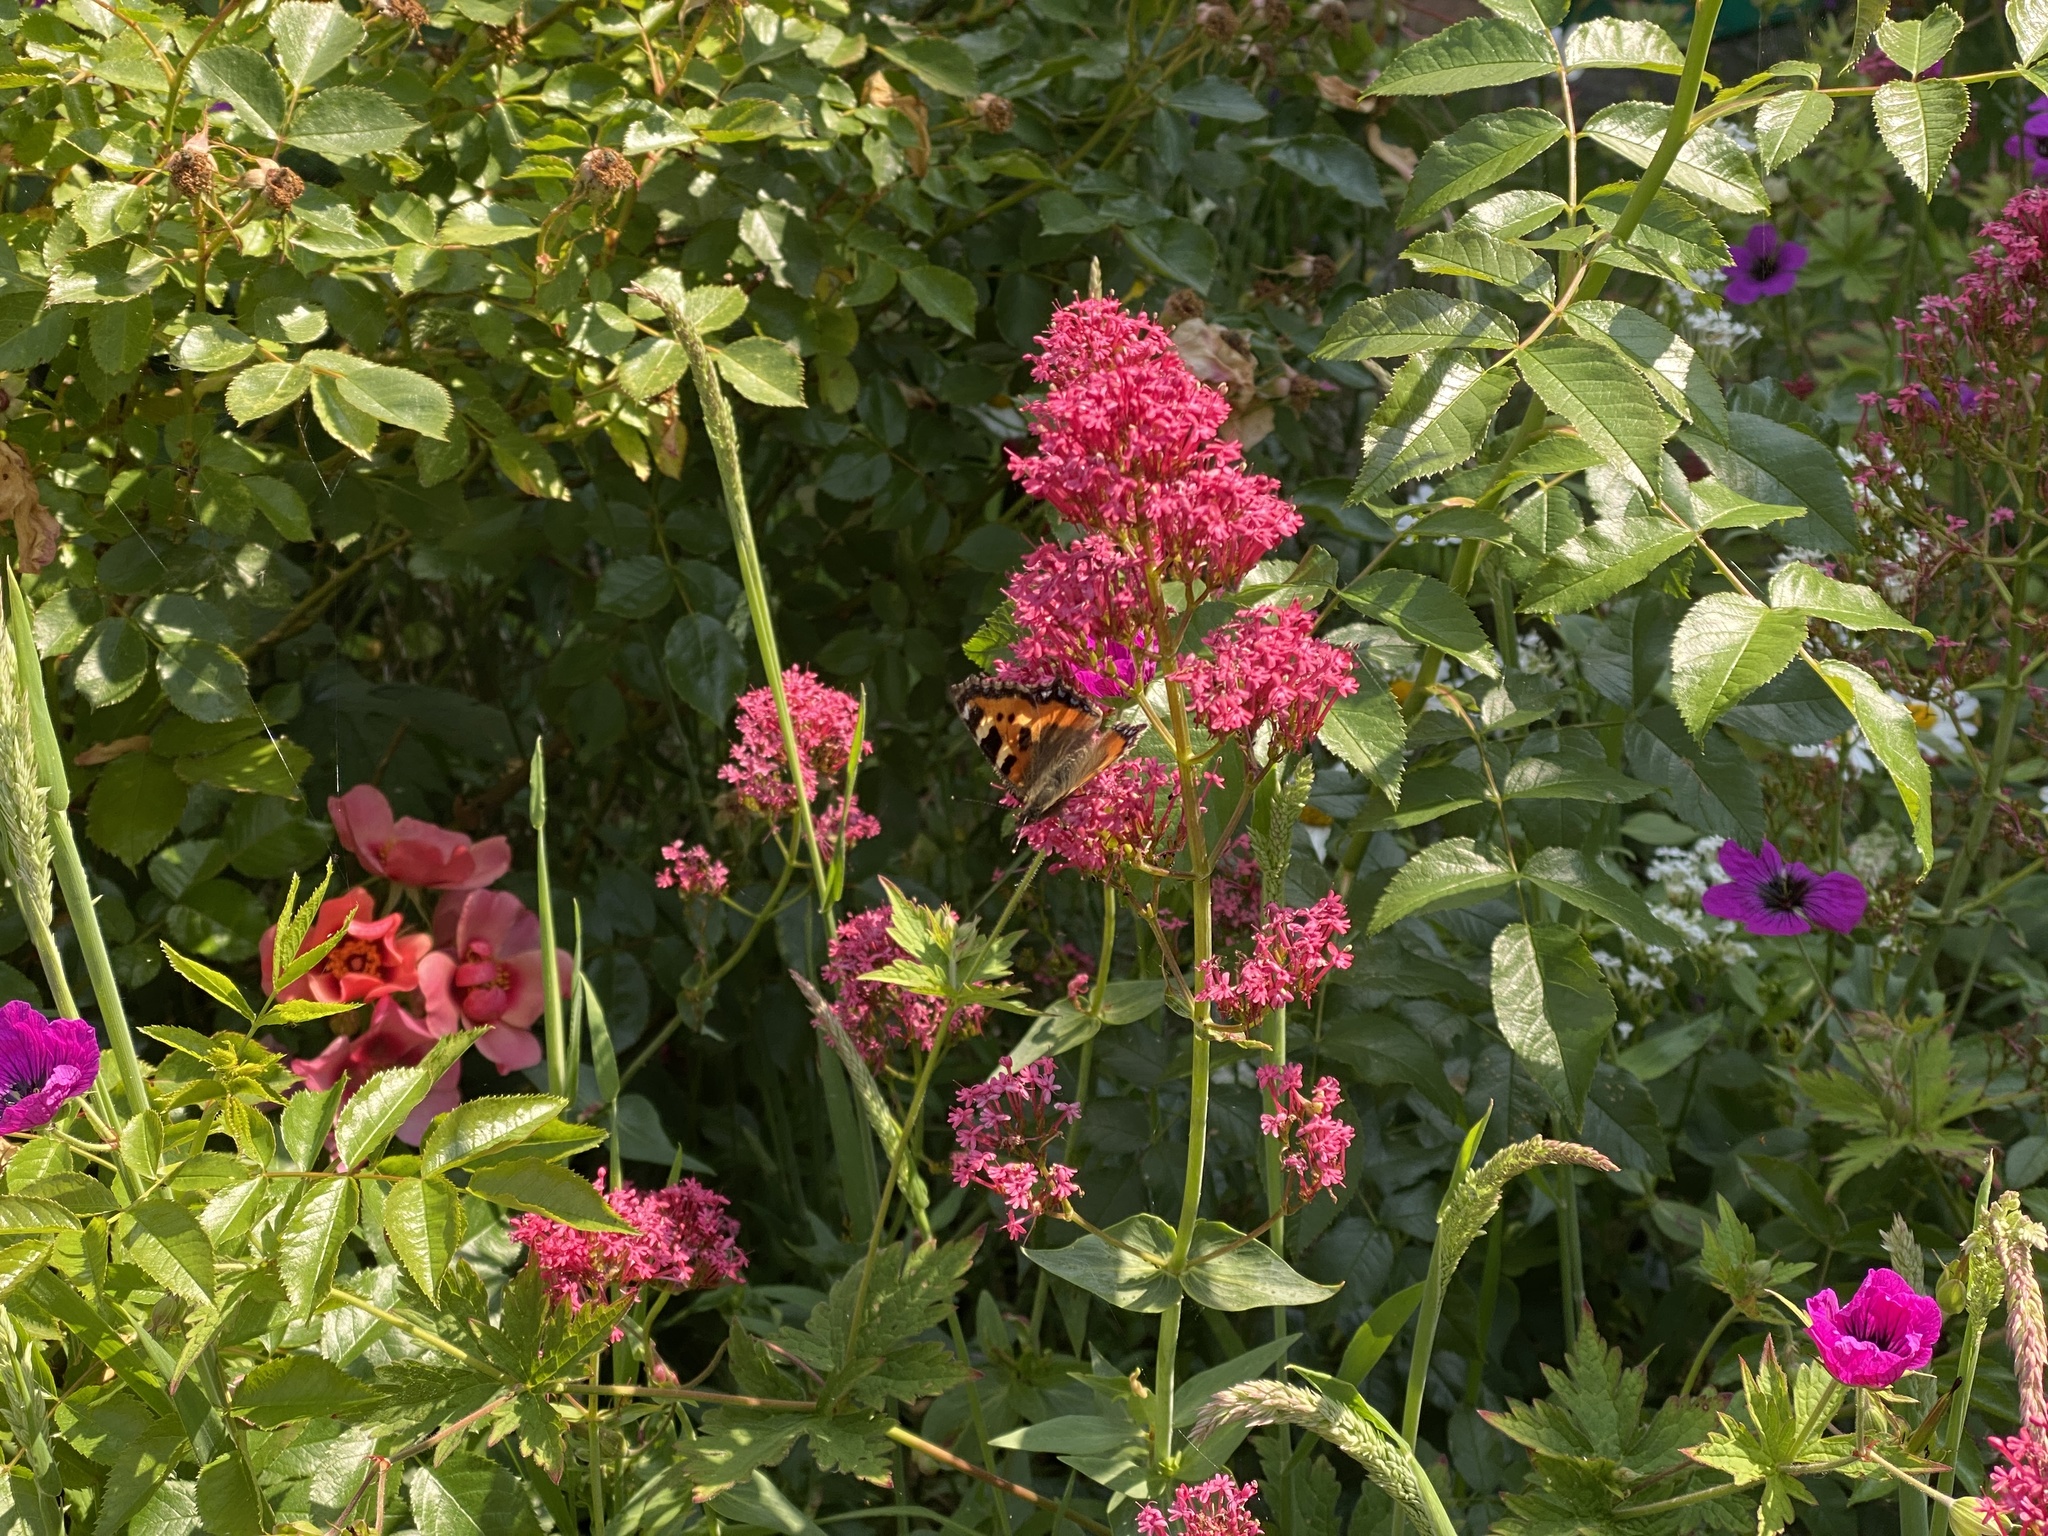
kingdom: Animalia
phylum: Arthropoda
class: Insecta
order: Lepidoptera
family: Nymphalidae
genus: Aglais
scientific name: Aglais urticae
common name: Small tortoiseshell
